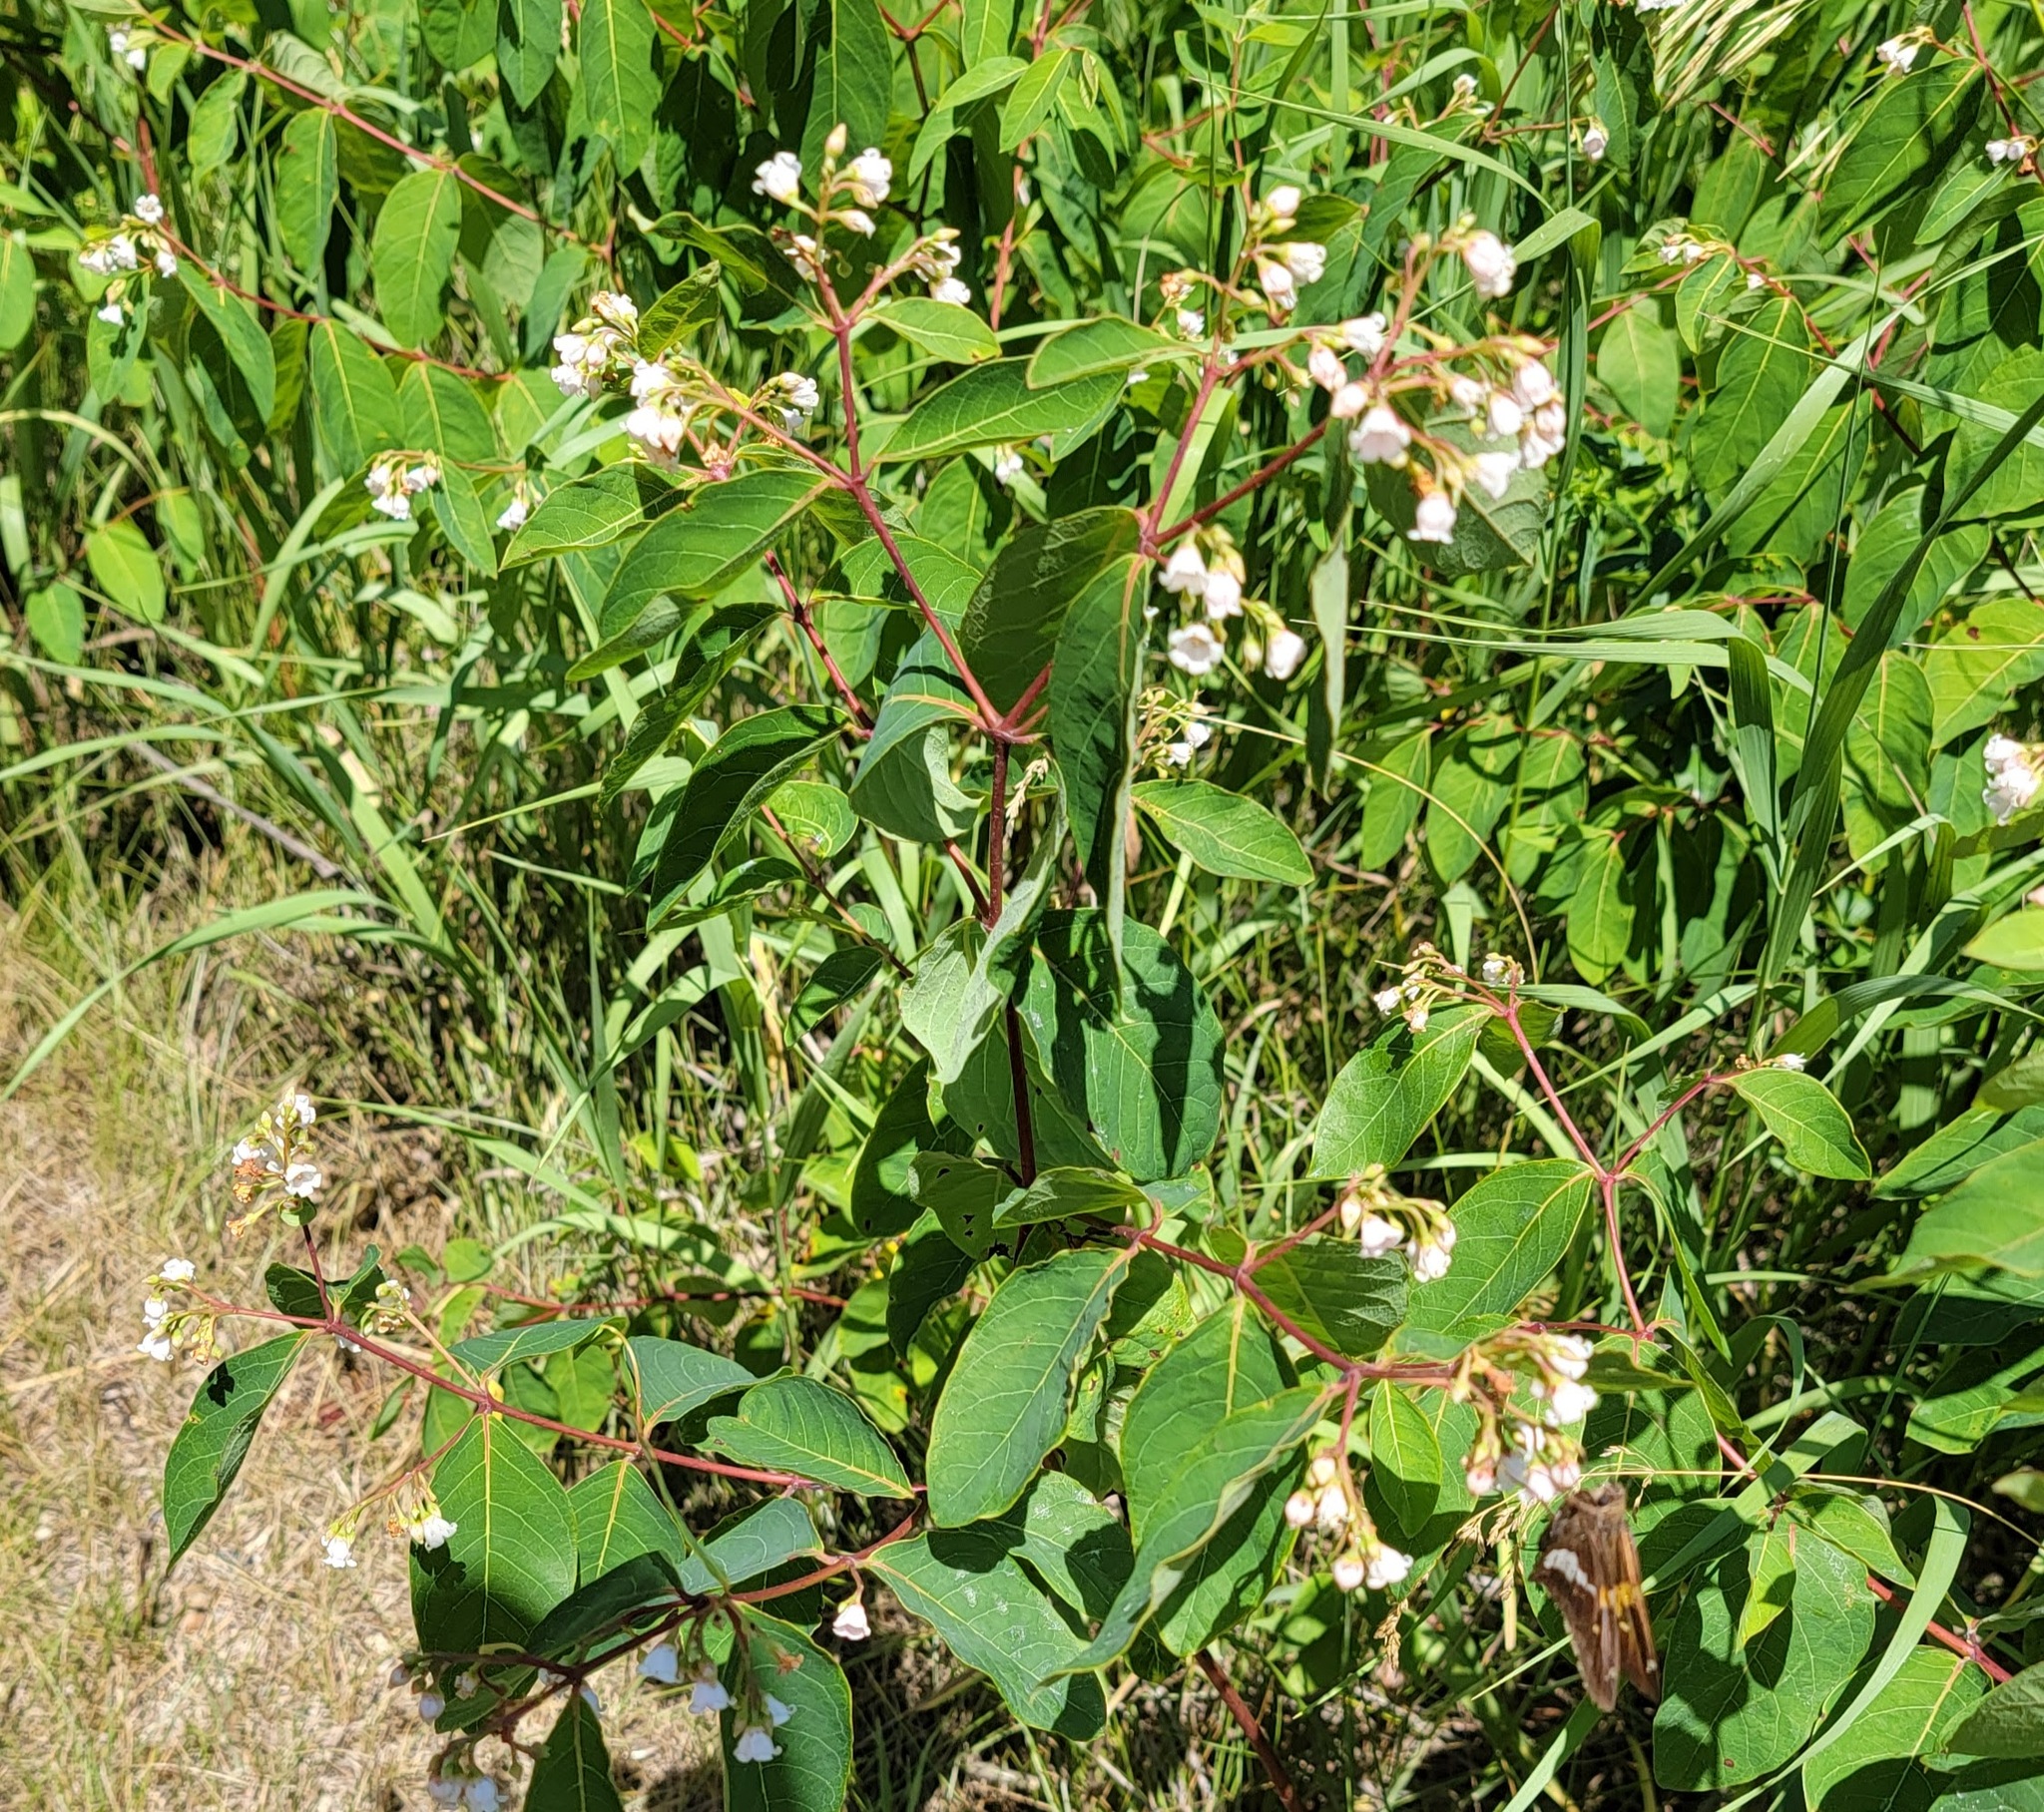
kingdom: Plantae
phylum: Tracheophyta
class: Magnoliopsida
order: Gentianales
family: Apocynaceae
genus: Apocynum
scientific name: Apocynum androsaemifolium
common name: Spreading dogbane
